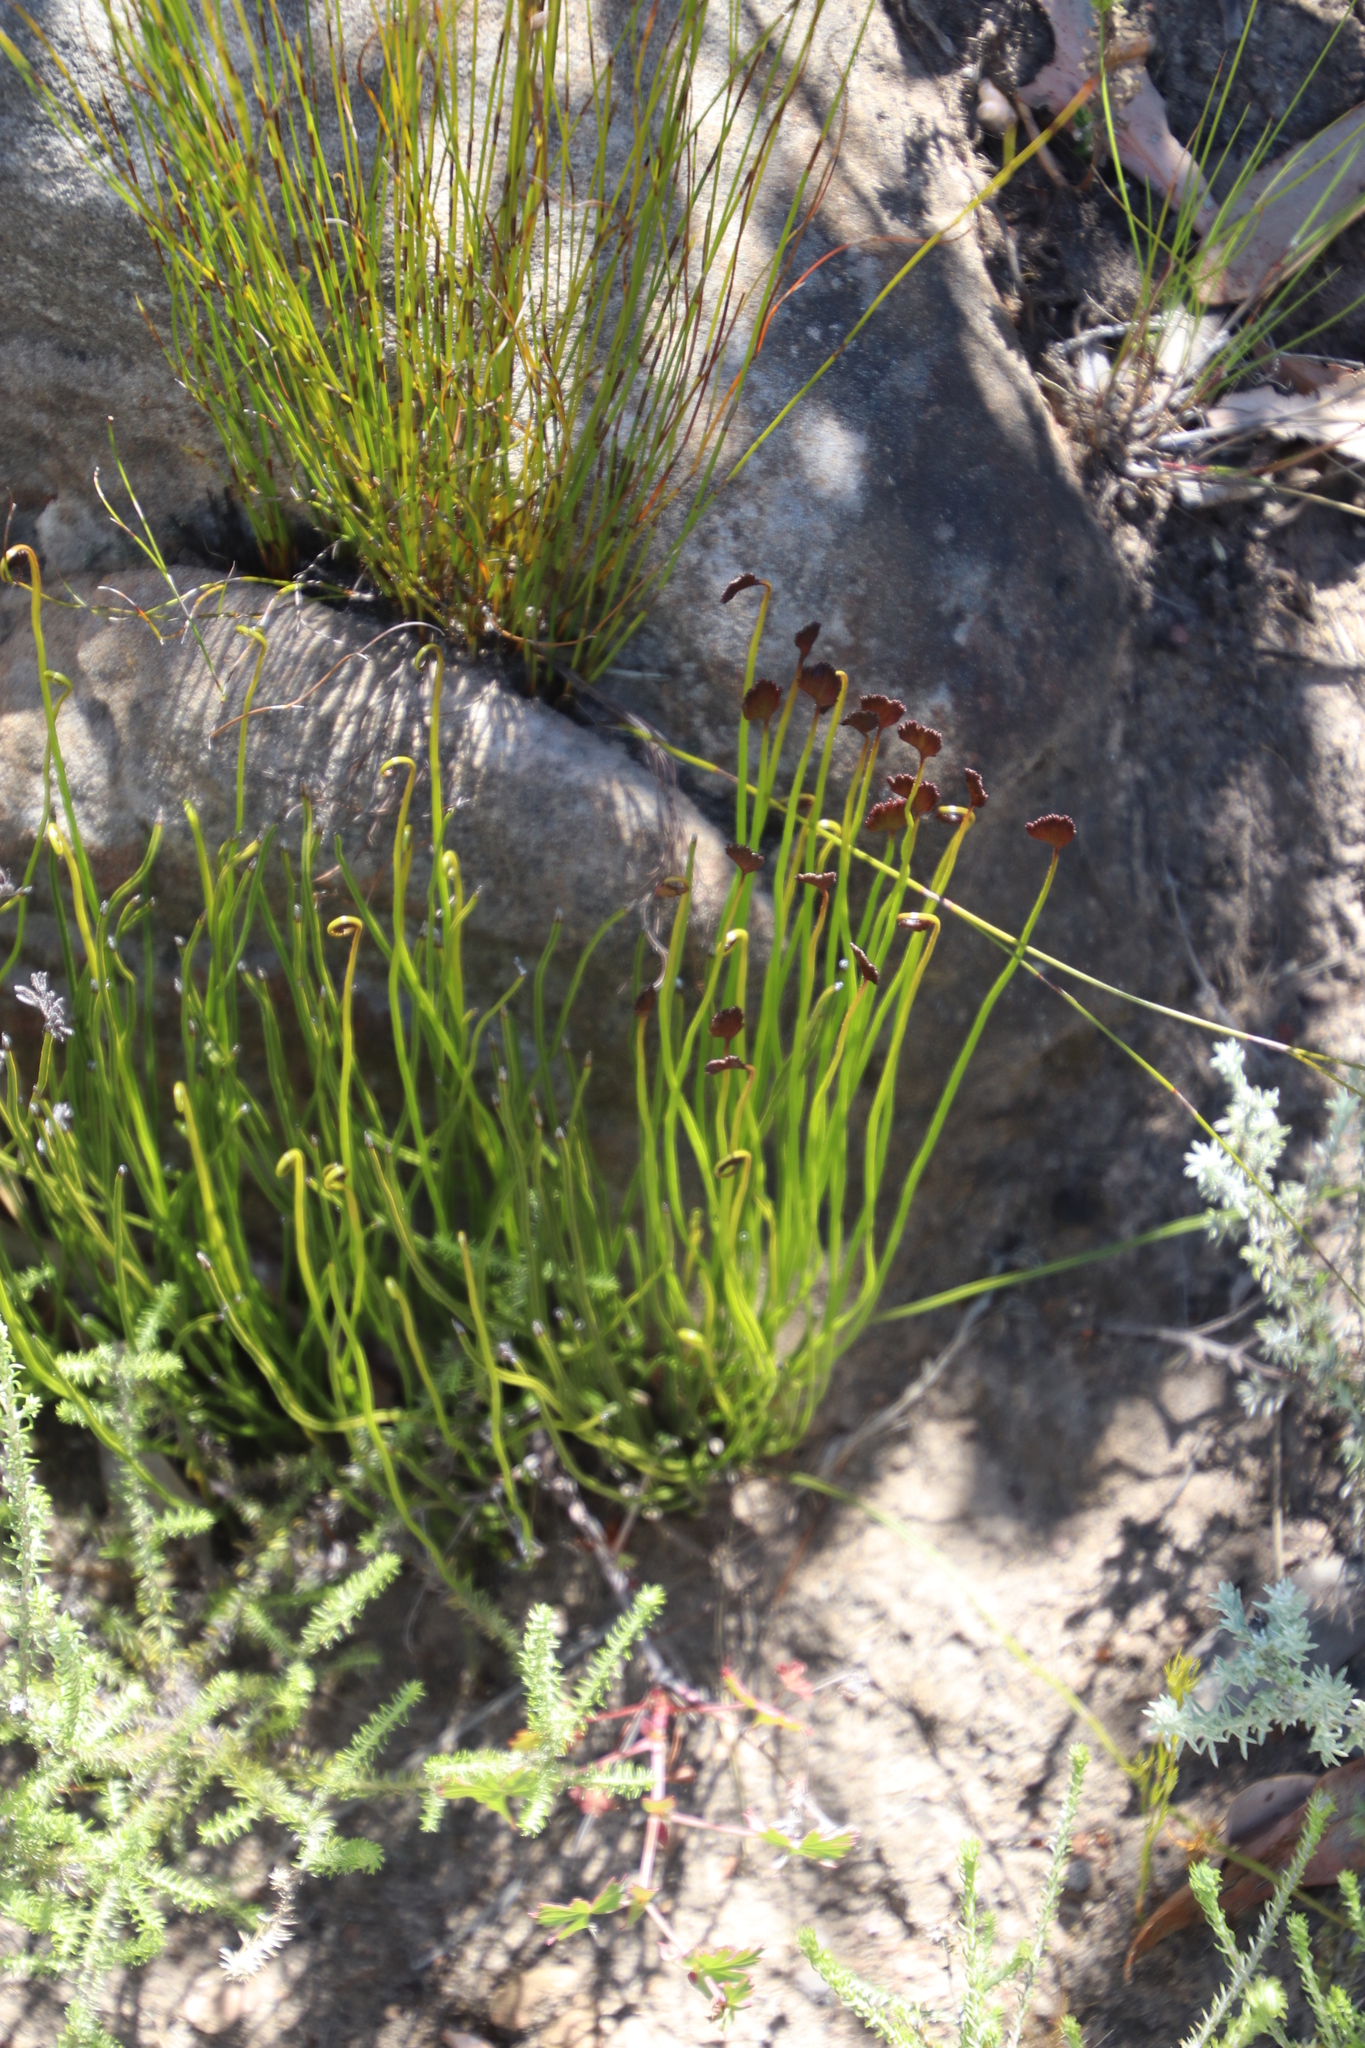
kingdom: Plantae
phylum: Tracheophyta
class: Polypodiopsida
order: Schizaeales
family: Schizaeaceae
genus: Schizaea
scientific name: Schizaea pectinata
